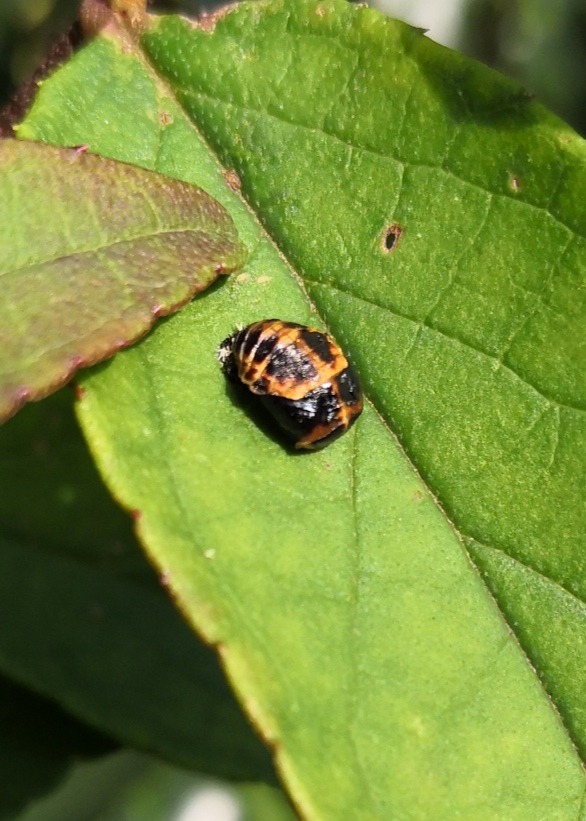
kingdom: Animalia
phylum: Arthropoda
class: Insecta
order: Coleoptera
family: Coccinellidae
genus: Harmonia
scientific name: Harmonia axyridis
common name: Harlequin ladybird
